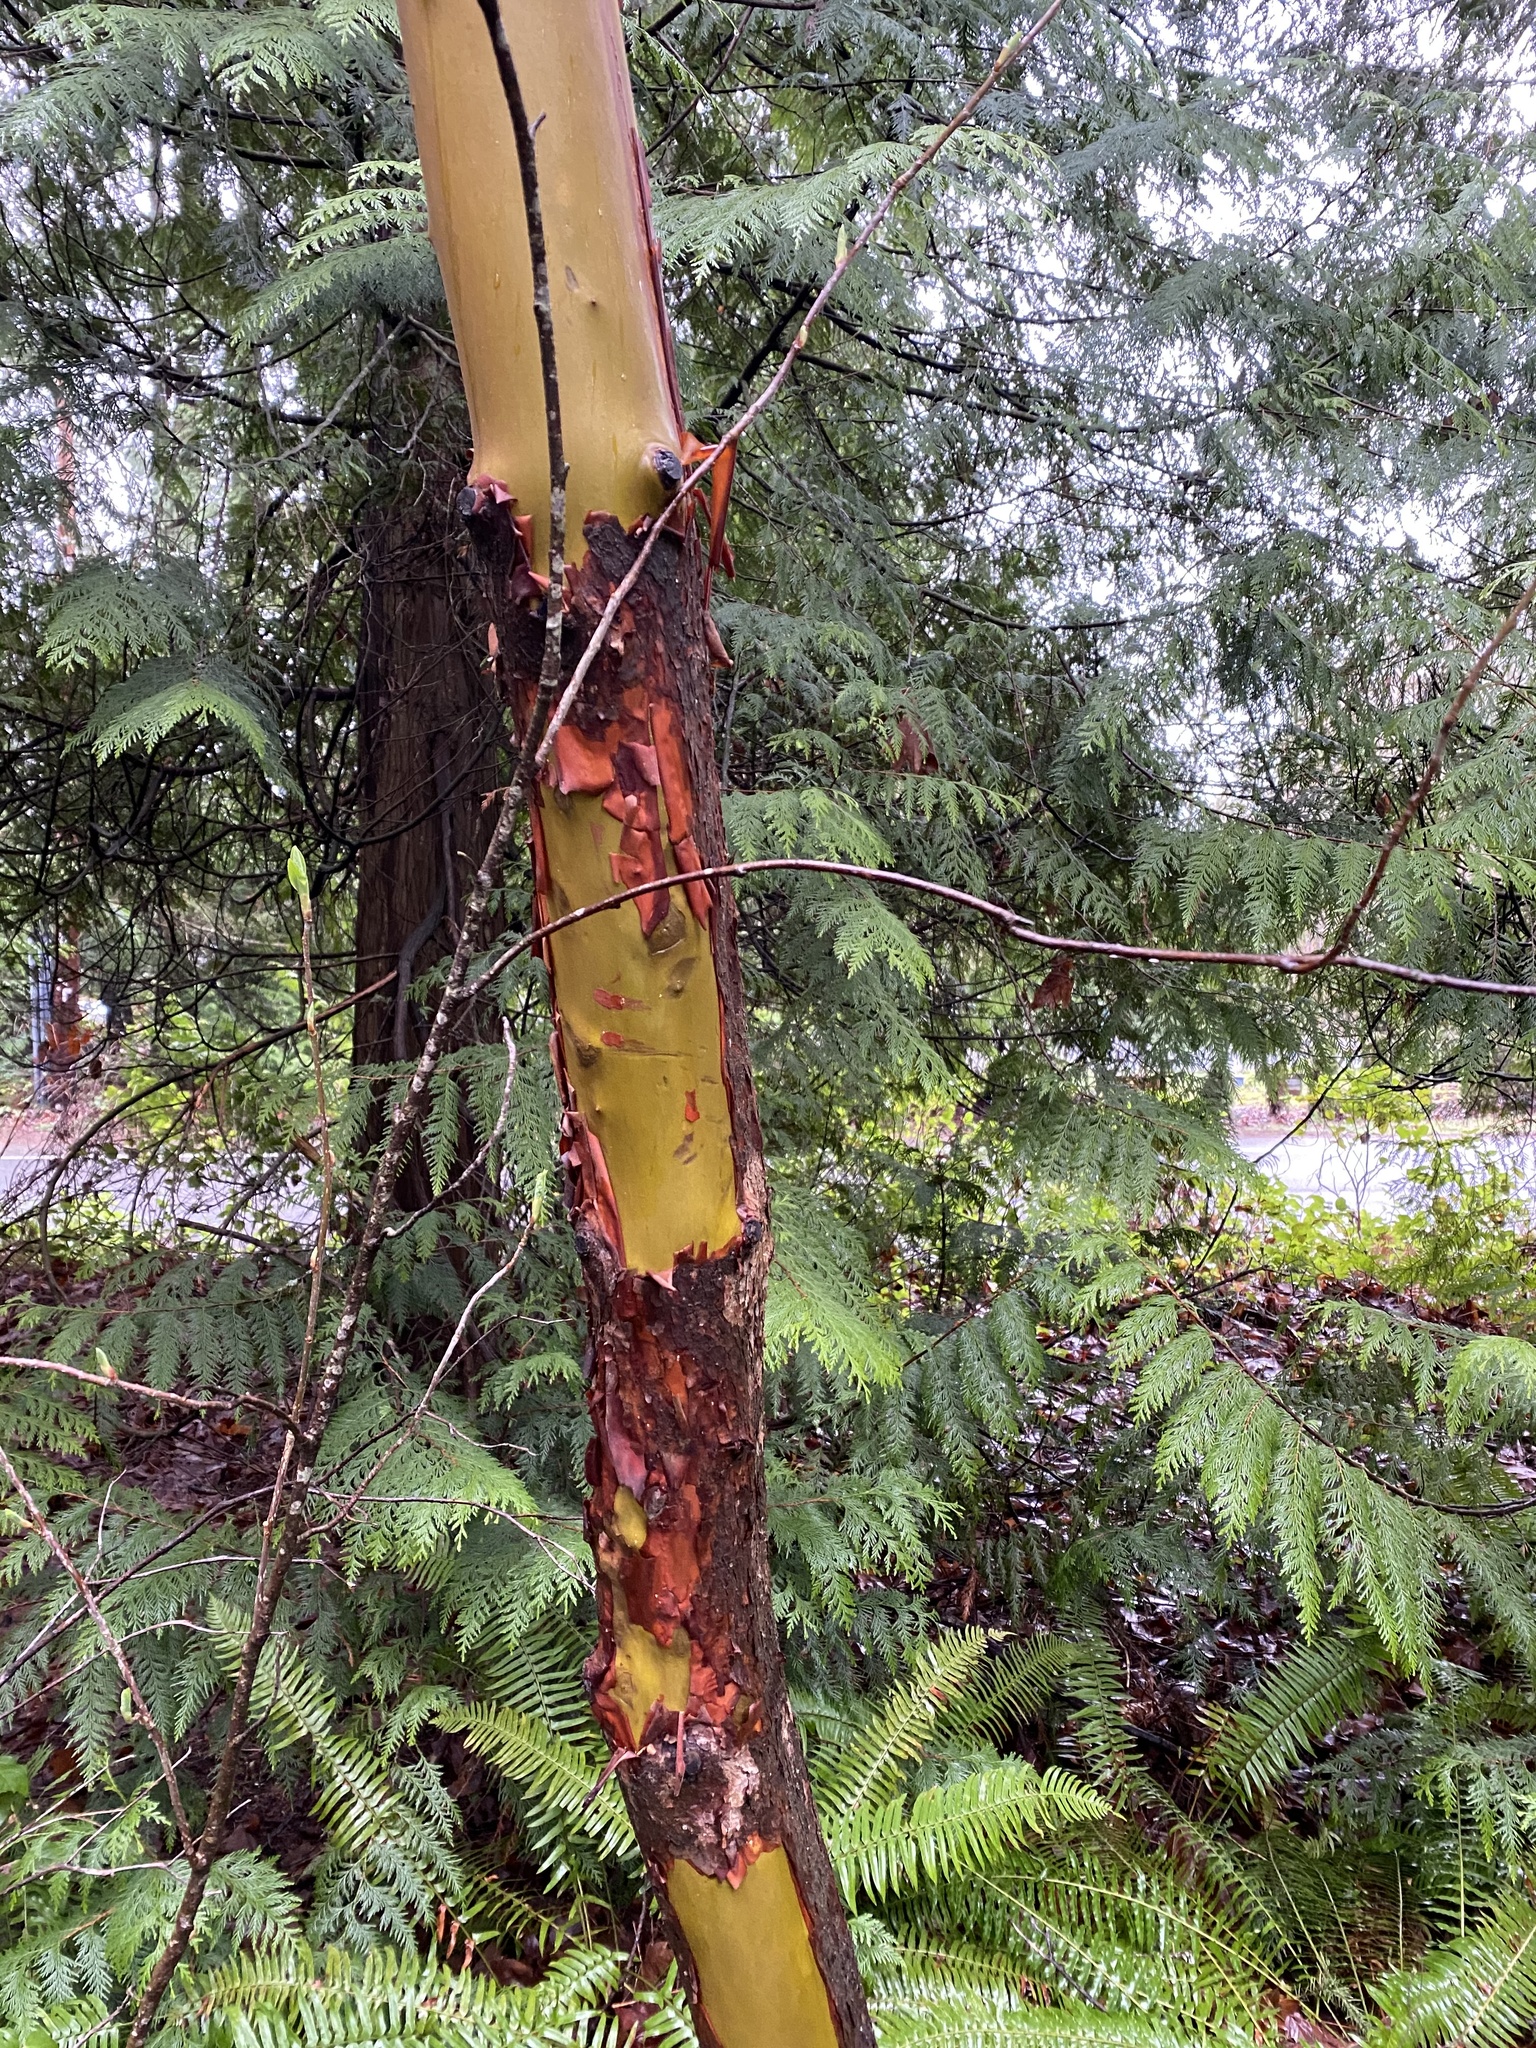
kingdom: Plantae
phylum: Tracheophyta
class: Magnoliopsida
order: Ericales
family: Ericaceae
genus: Arbutus
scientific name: Arbutus menziesii
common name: Pacific madrone
